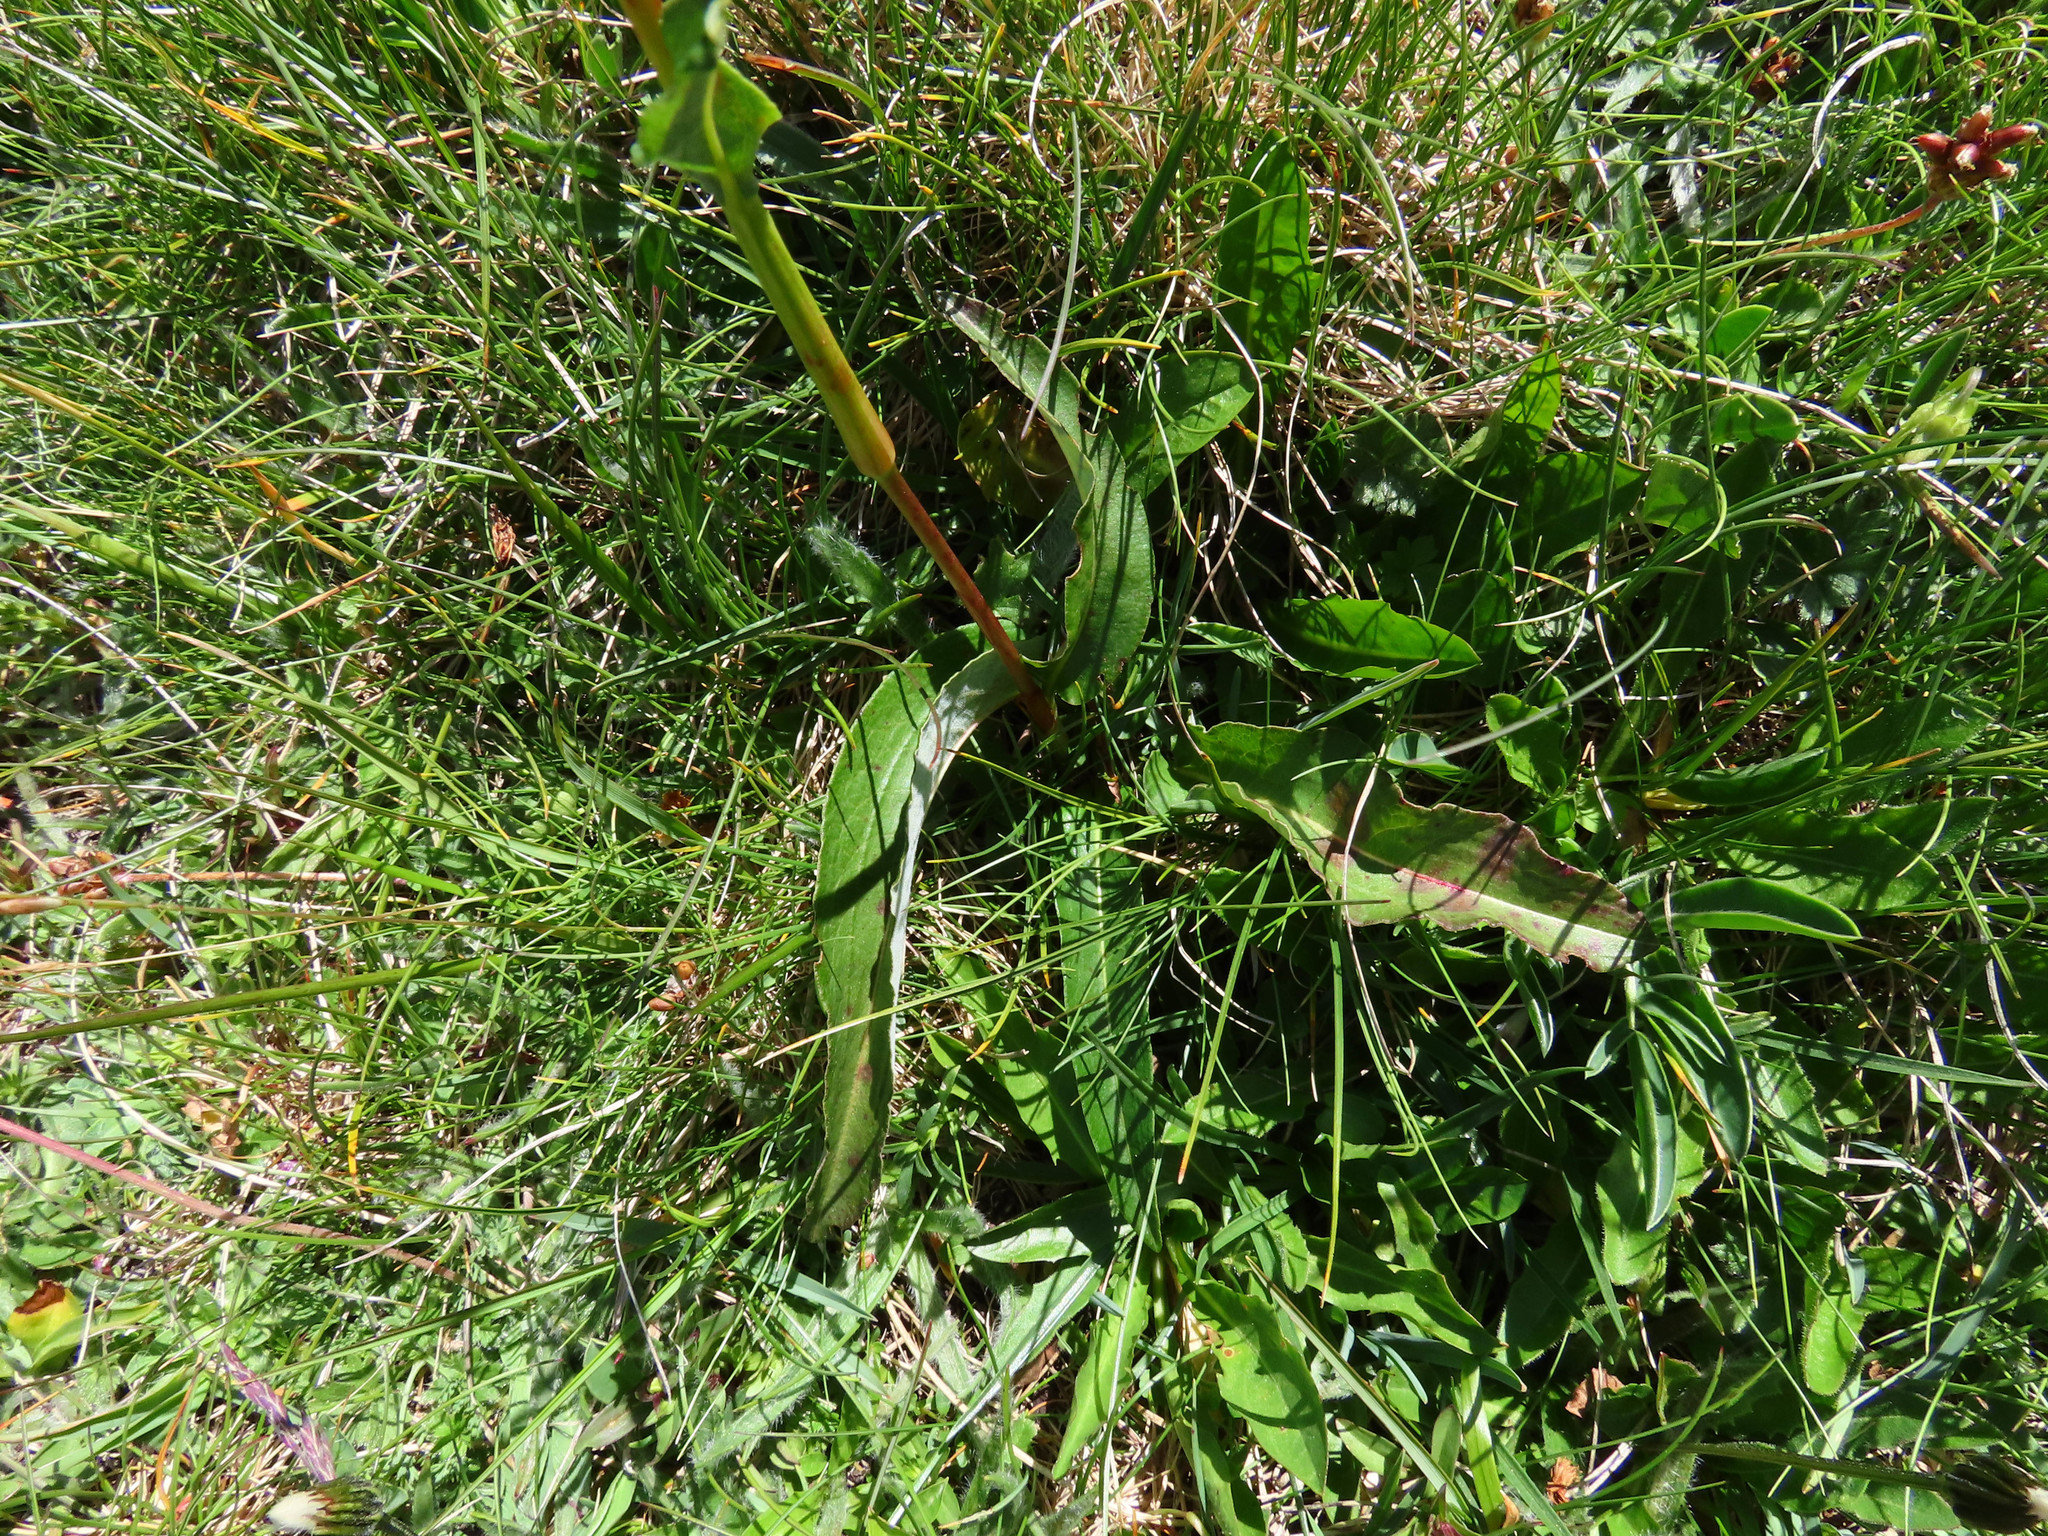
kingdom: Plantae
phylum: Tracheophyta
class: Magnoliopsida
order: Caryophyllales
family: Polygonaceae
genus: Bistorta
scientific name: Bistorta officinalis
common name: Common bistort
